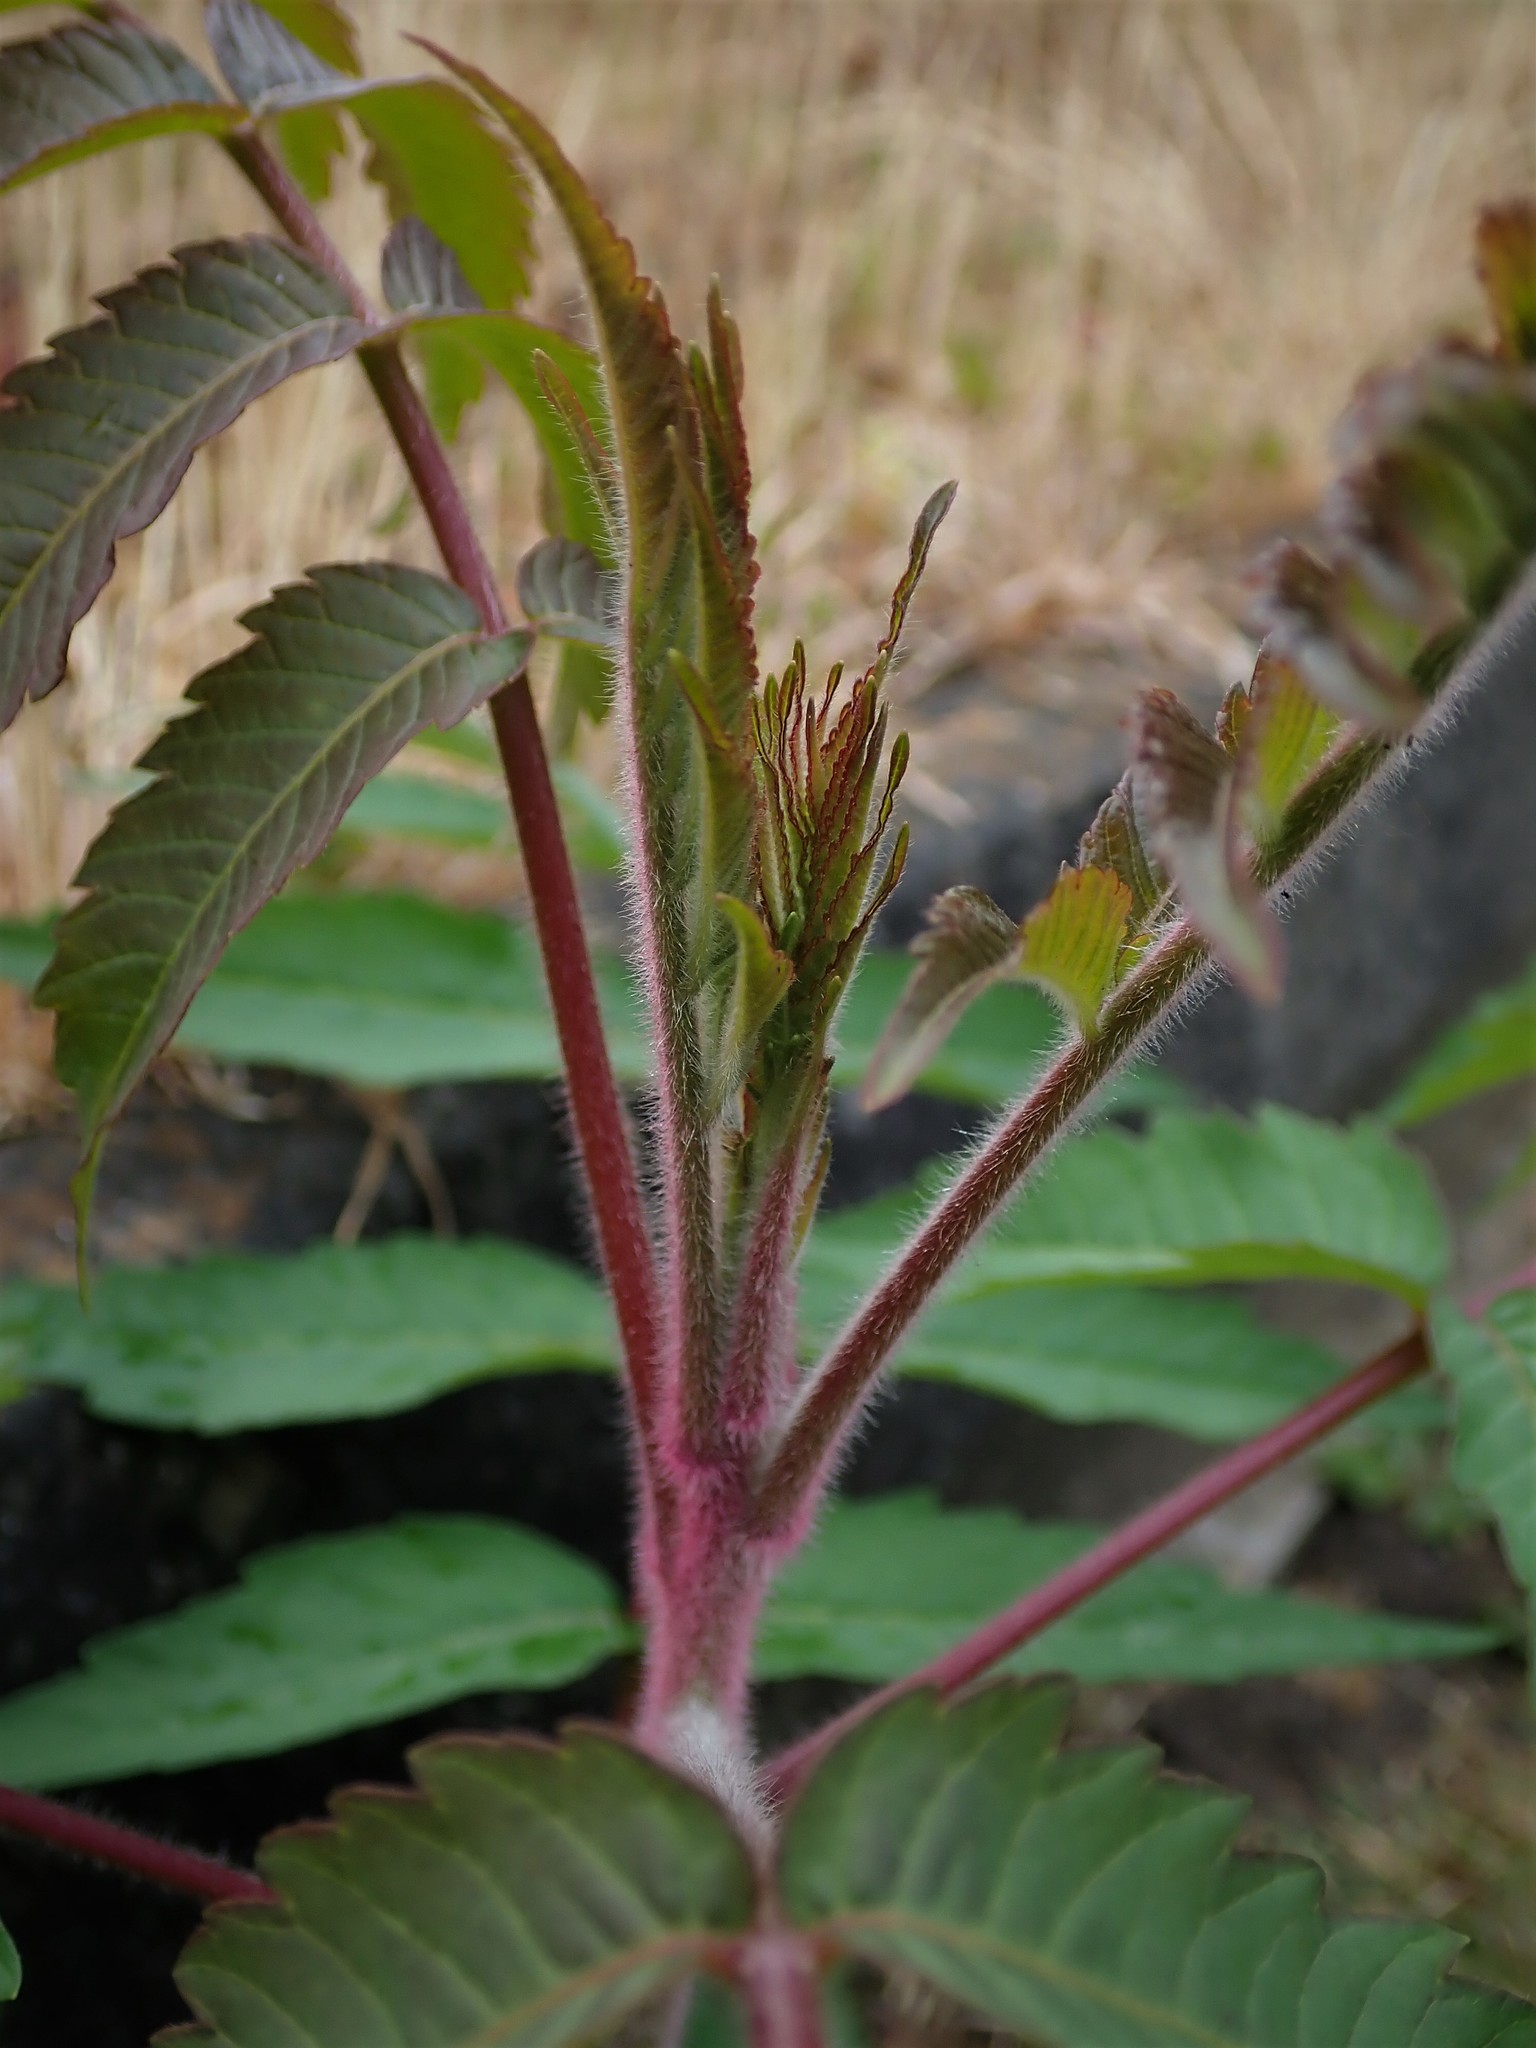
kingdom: Plantae
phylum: Tracheophyta
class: Magnoliopsida
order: Sapindales
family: Anacardiaceae
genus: Rhus
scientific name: Rhus typhina
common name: Staghorn sumac
